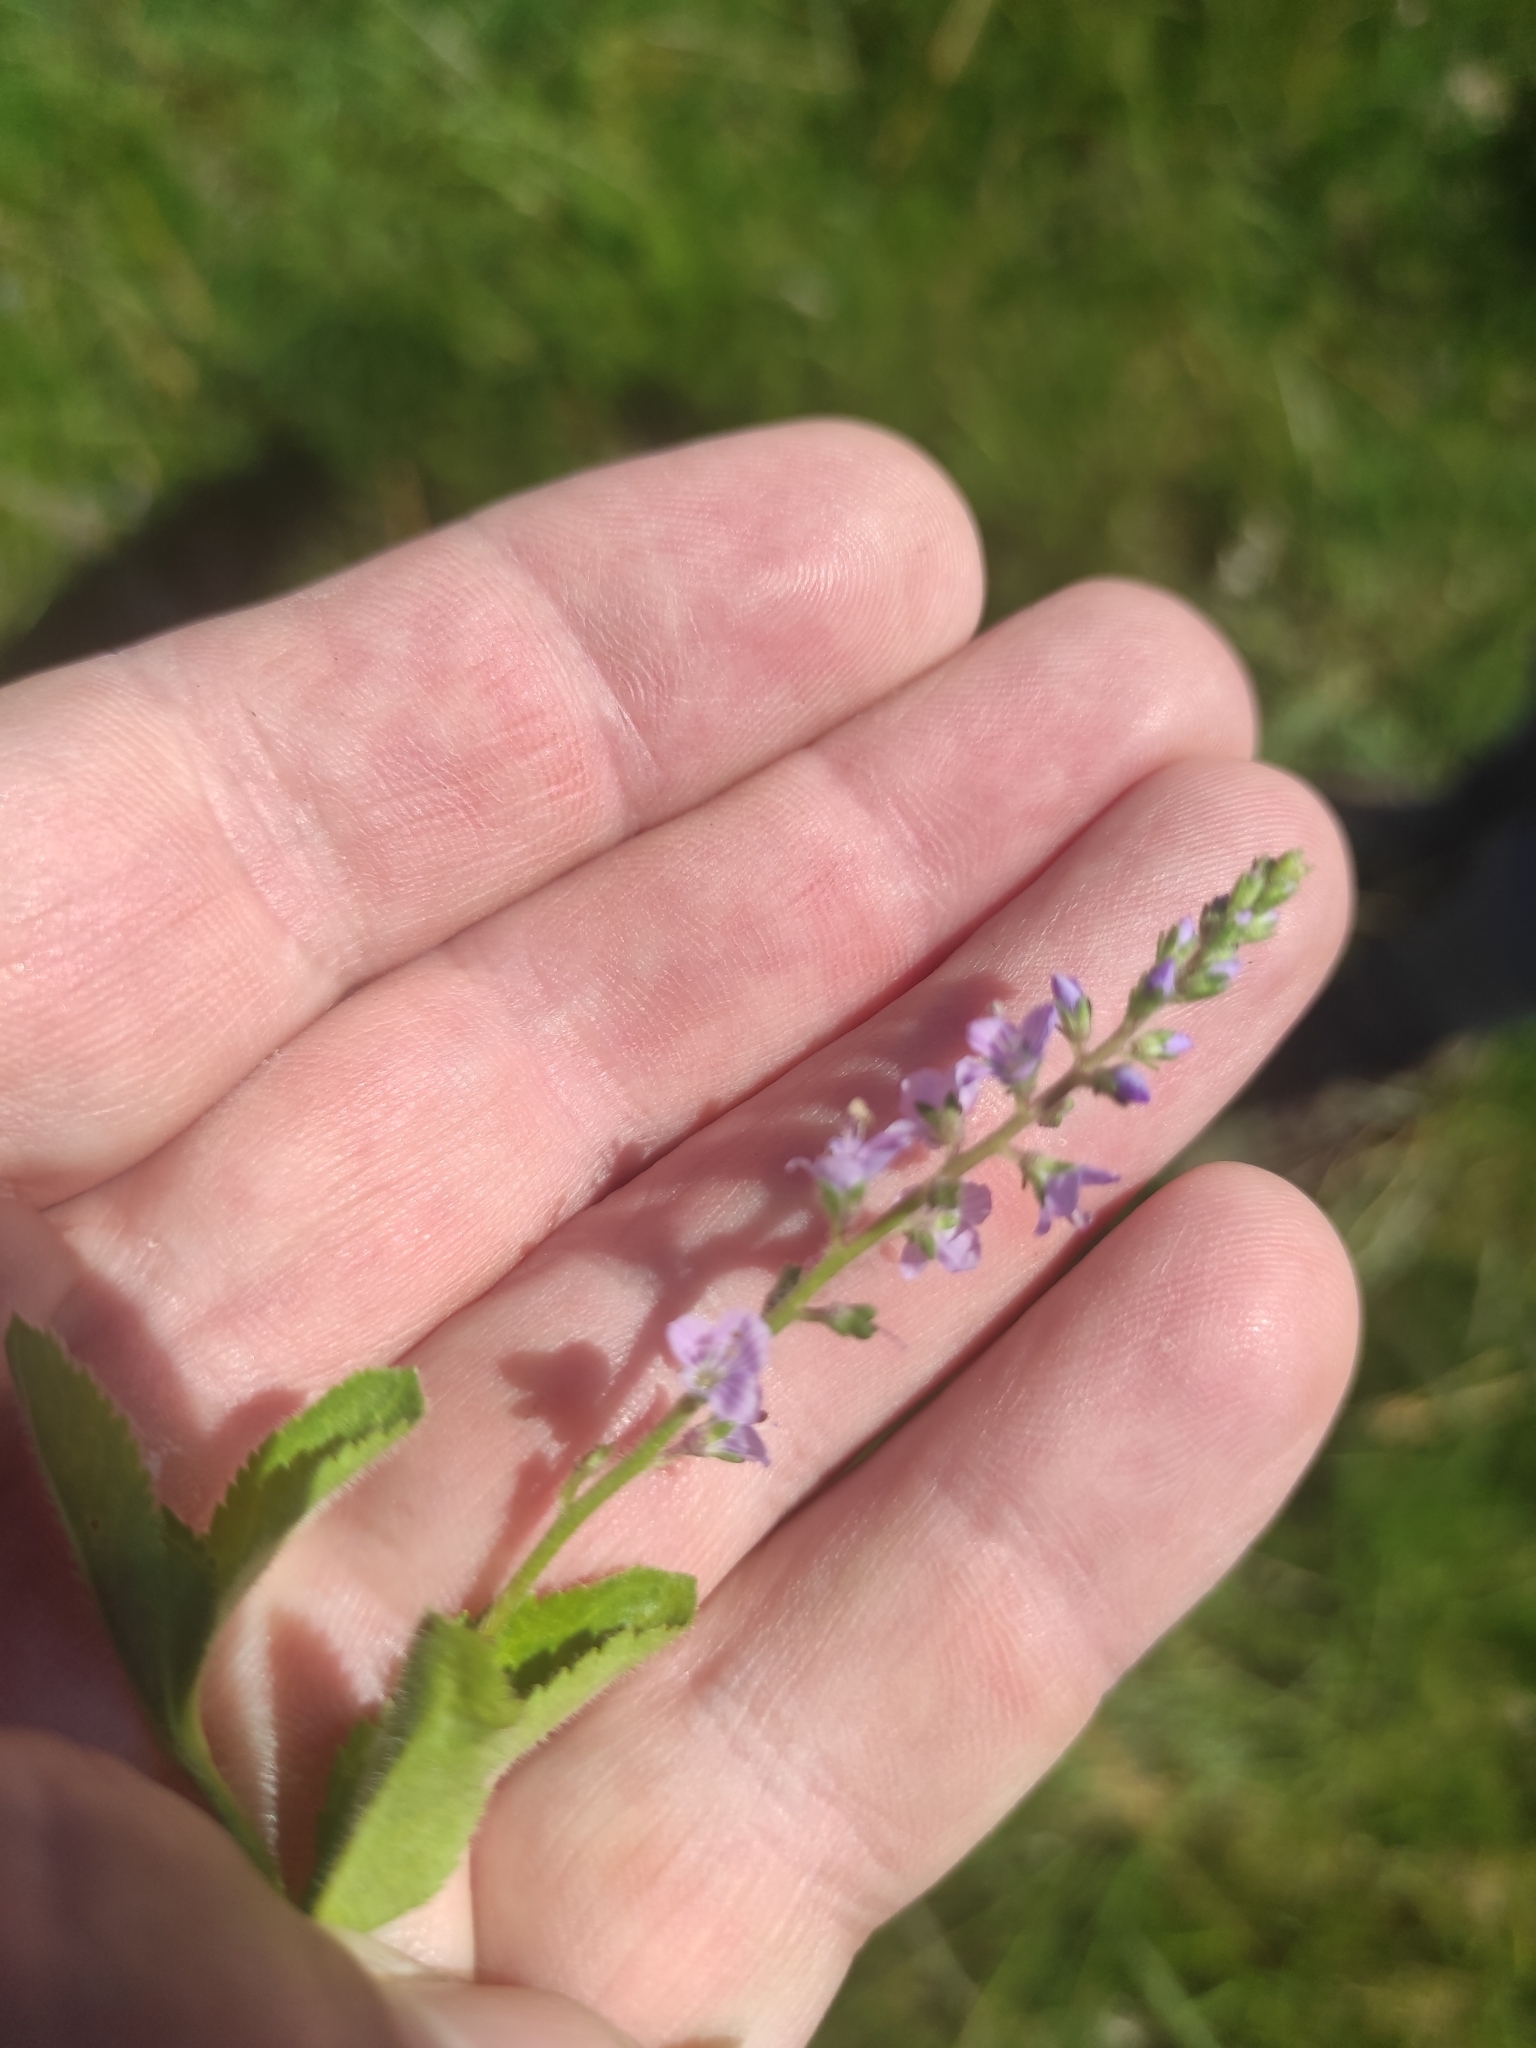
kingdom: Plantae
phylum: Tracheophyta
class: Magnoliopsida
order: Lamiales
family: Plantaginaceae
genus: Veronica
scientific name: Veronica officinalis
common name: Common speedwell
